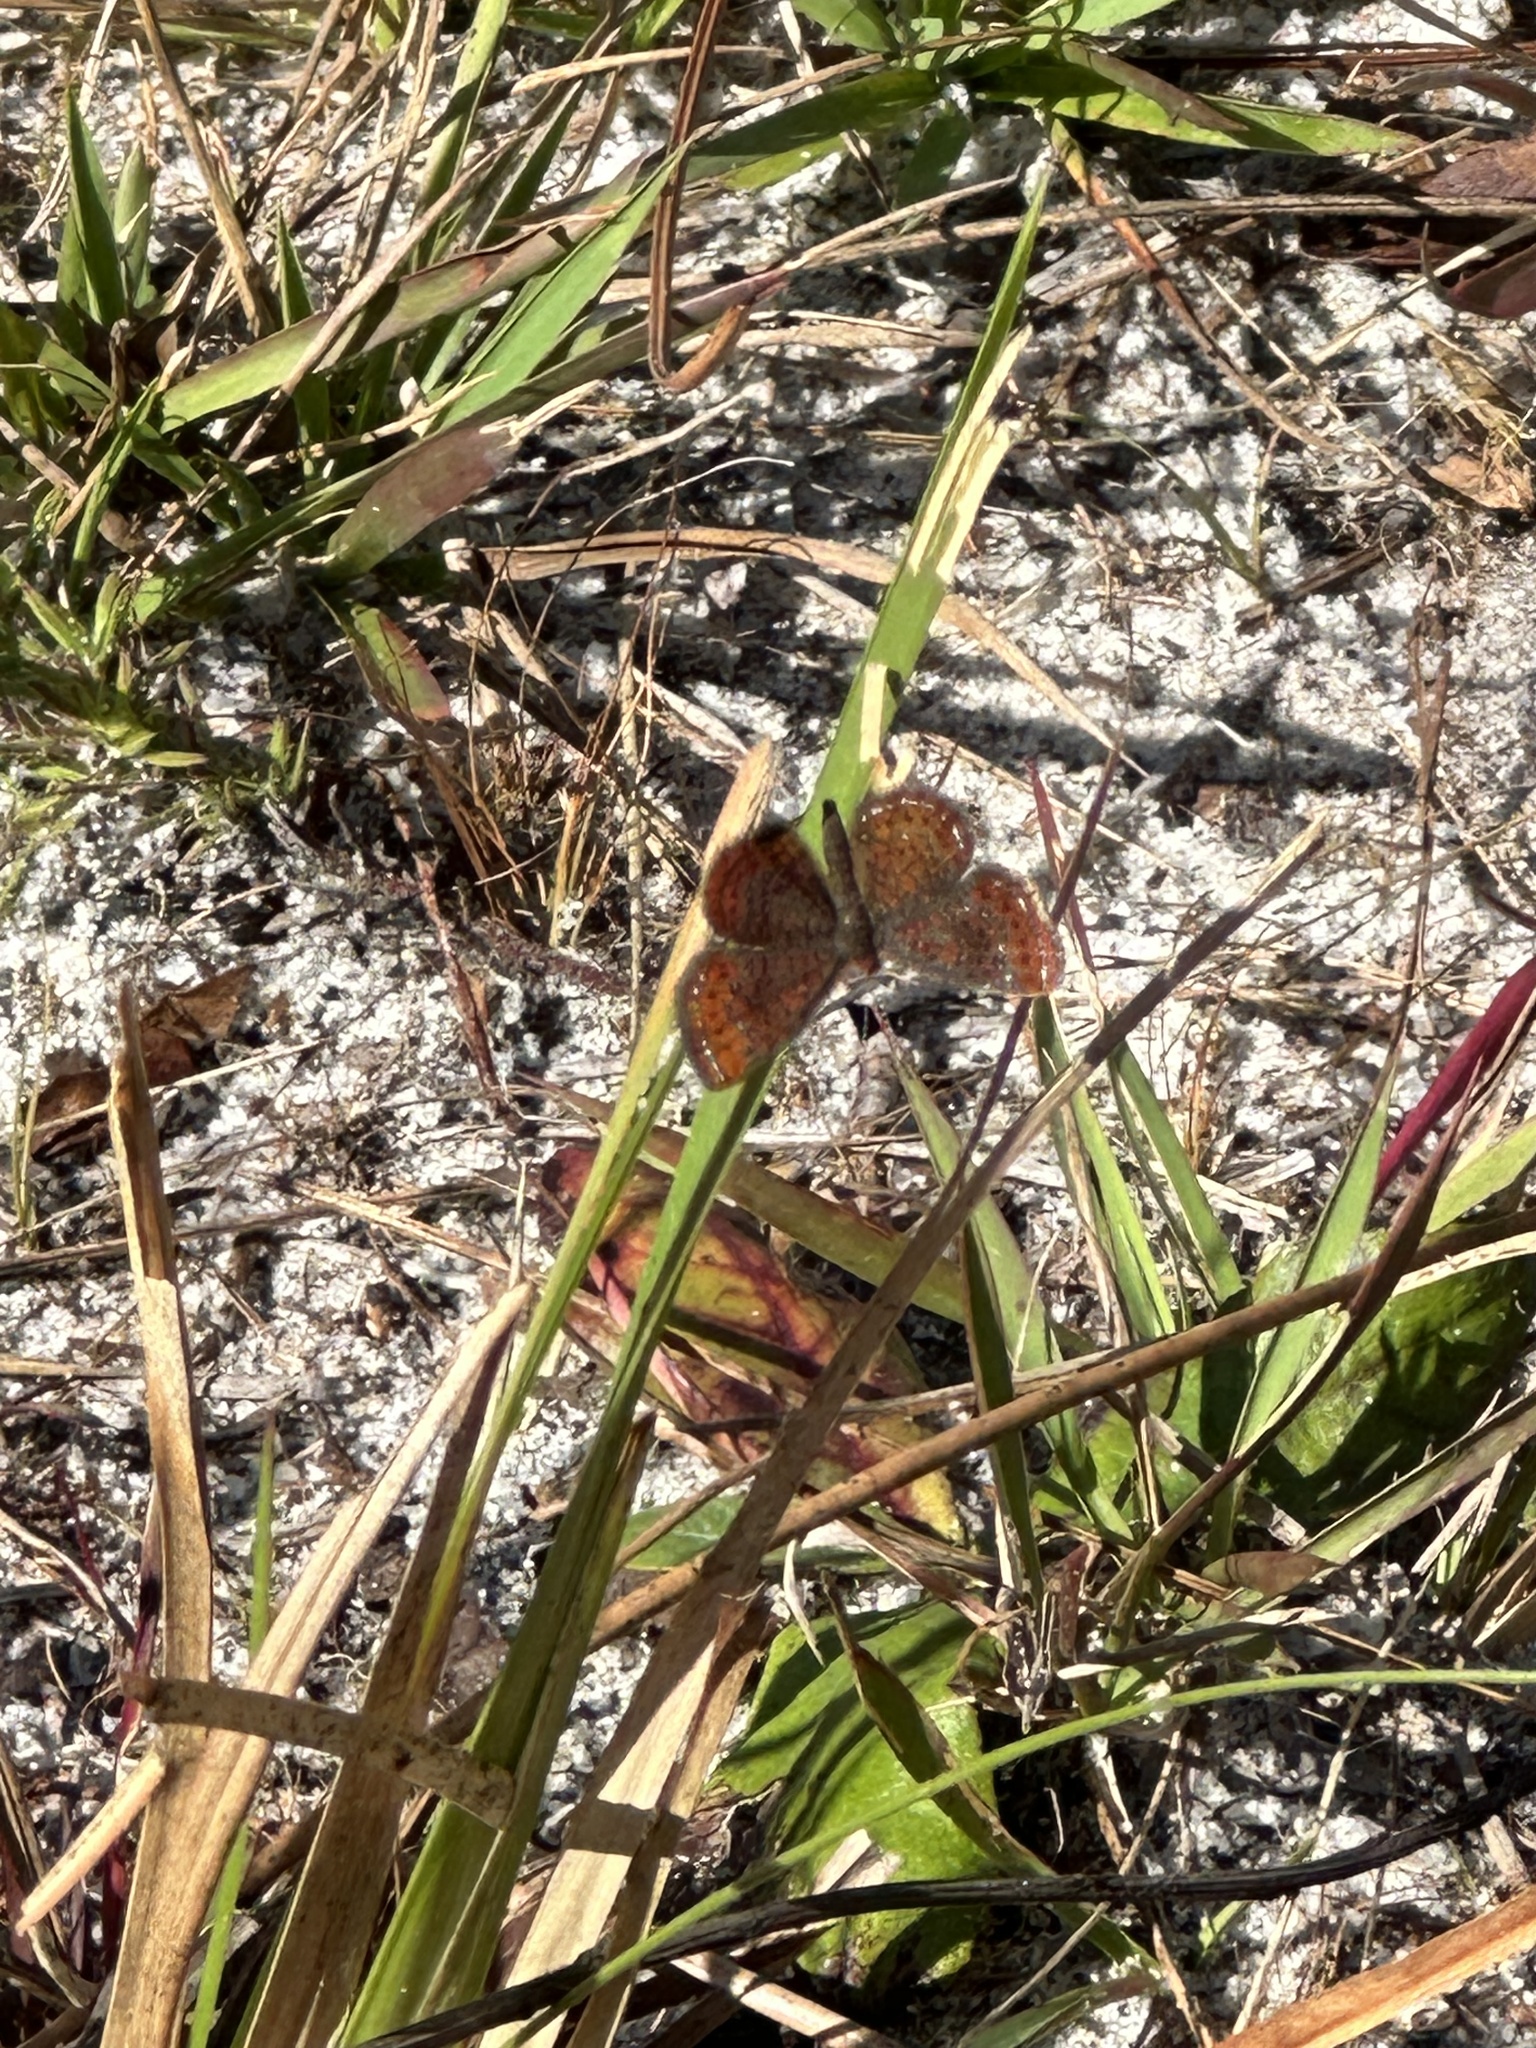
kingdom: Animalia
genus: Calephelis
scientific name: Calephelis virginiensis
